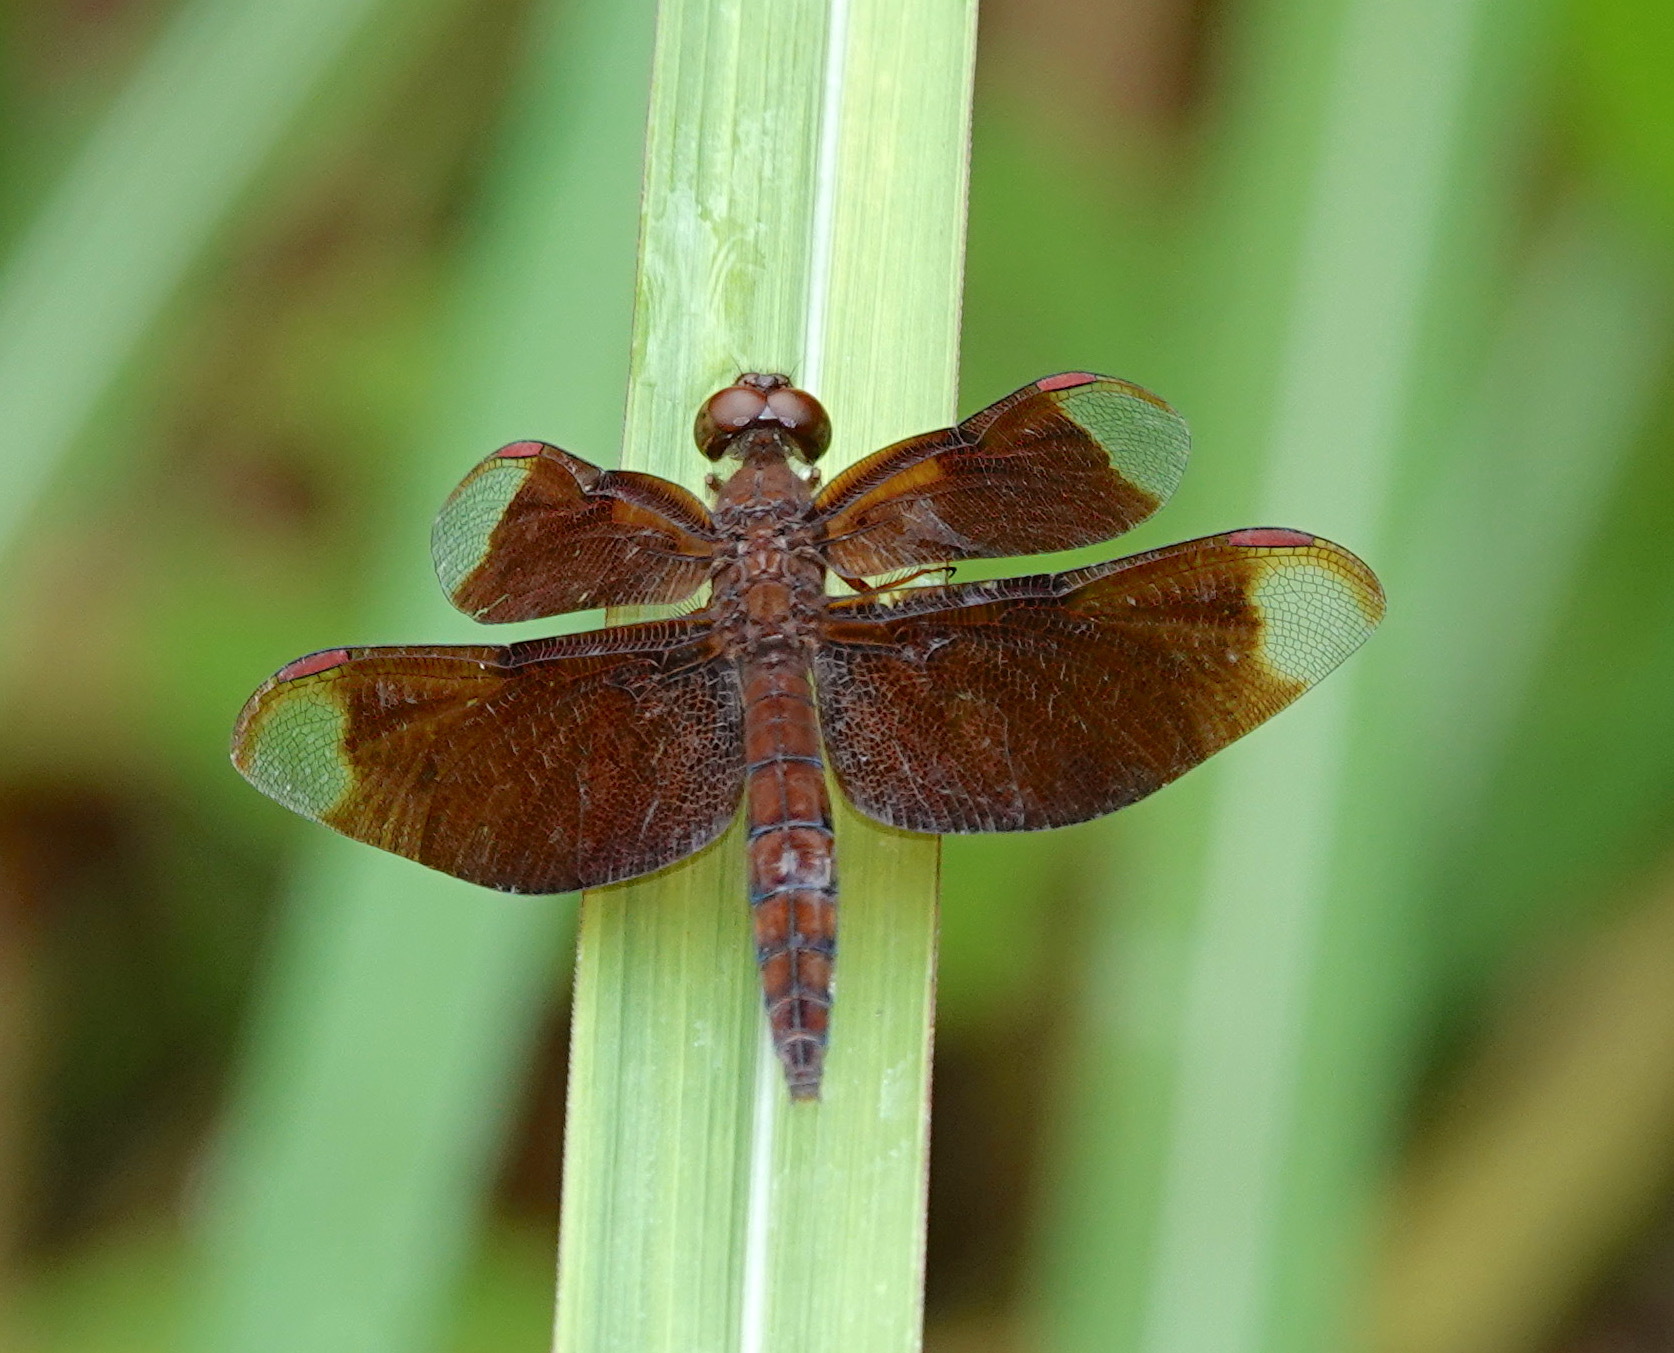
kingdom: Animalia
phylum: Arthropoda
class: Insecta
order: Odonata
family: Libellulidae
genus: Neurothemis
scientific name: Neurothemis fulvia
